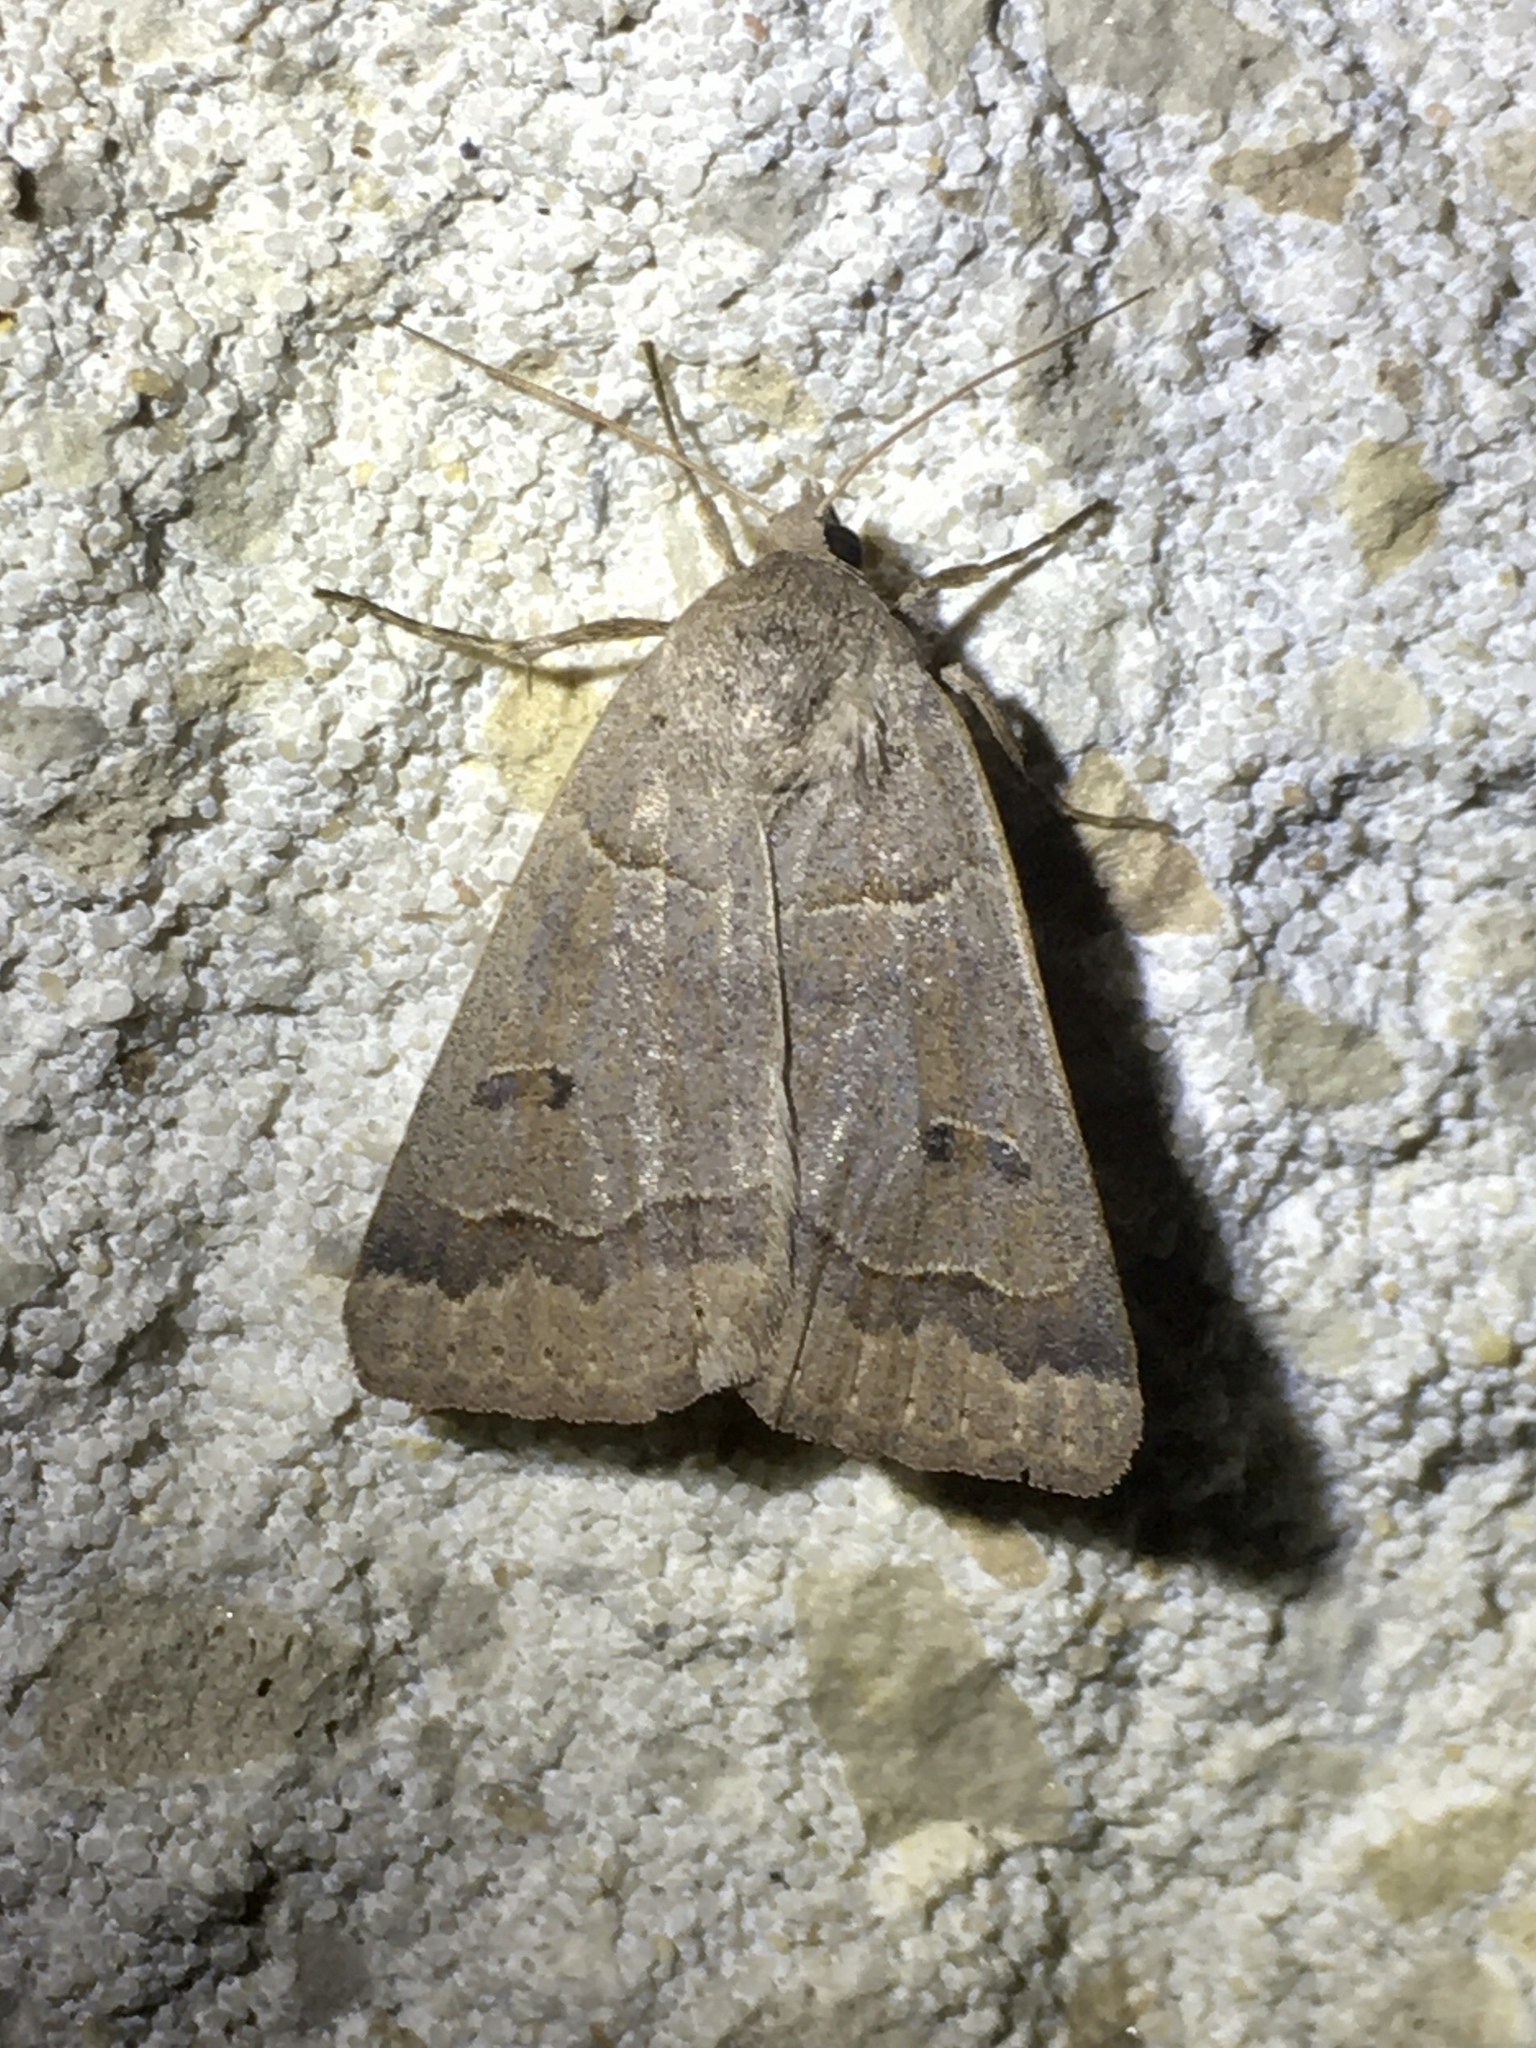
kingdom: Animalia
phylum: Arthropoda
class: Insecta
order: Lepidoptera
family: Erebidae
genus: Phoberia
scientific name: Phoberia atomaris
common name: Common oak moth
